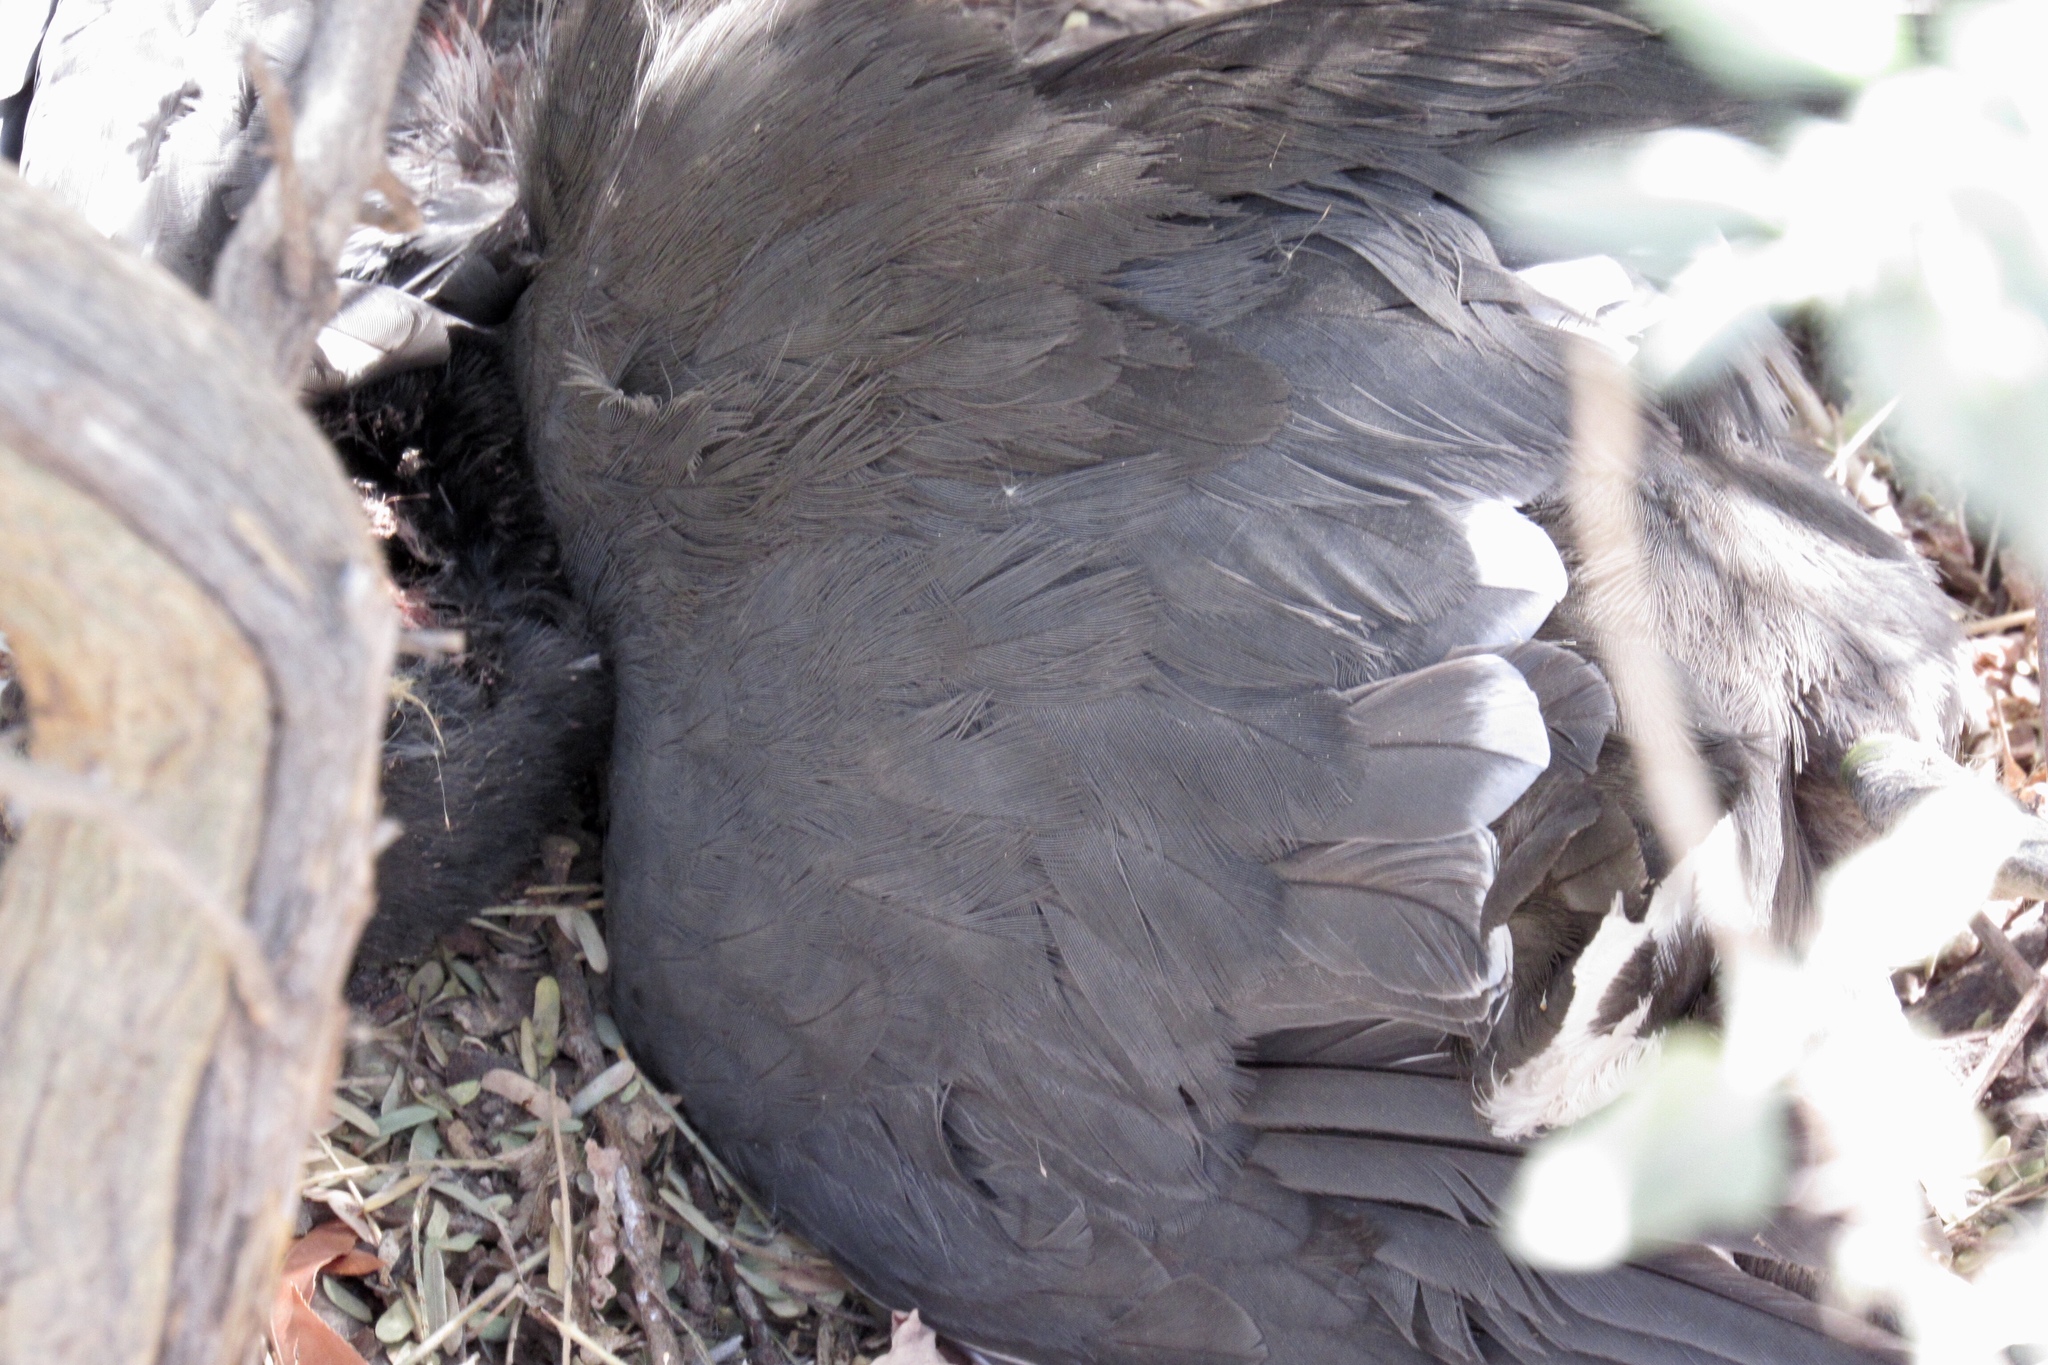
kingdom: Animalia
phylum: Chordata
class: Aves
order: Gruiformes
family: Rallidae
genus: Fulica
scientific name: Fulica americana
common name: American coot
